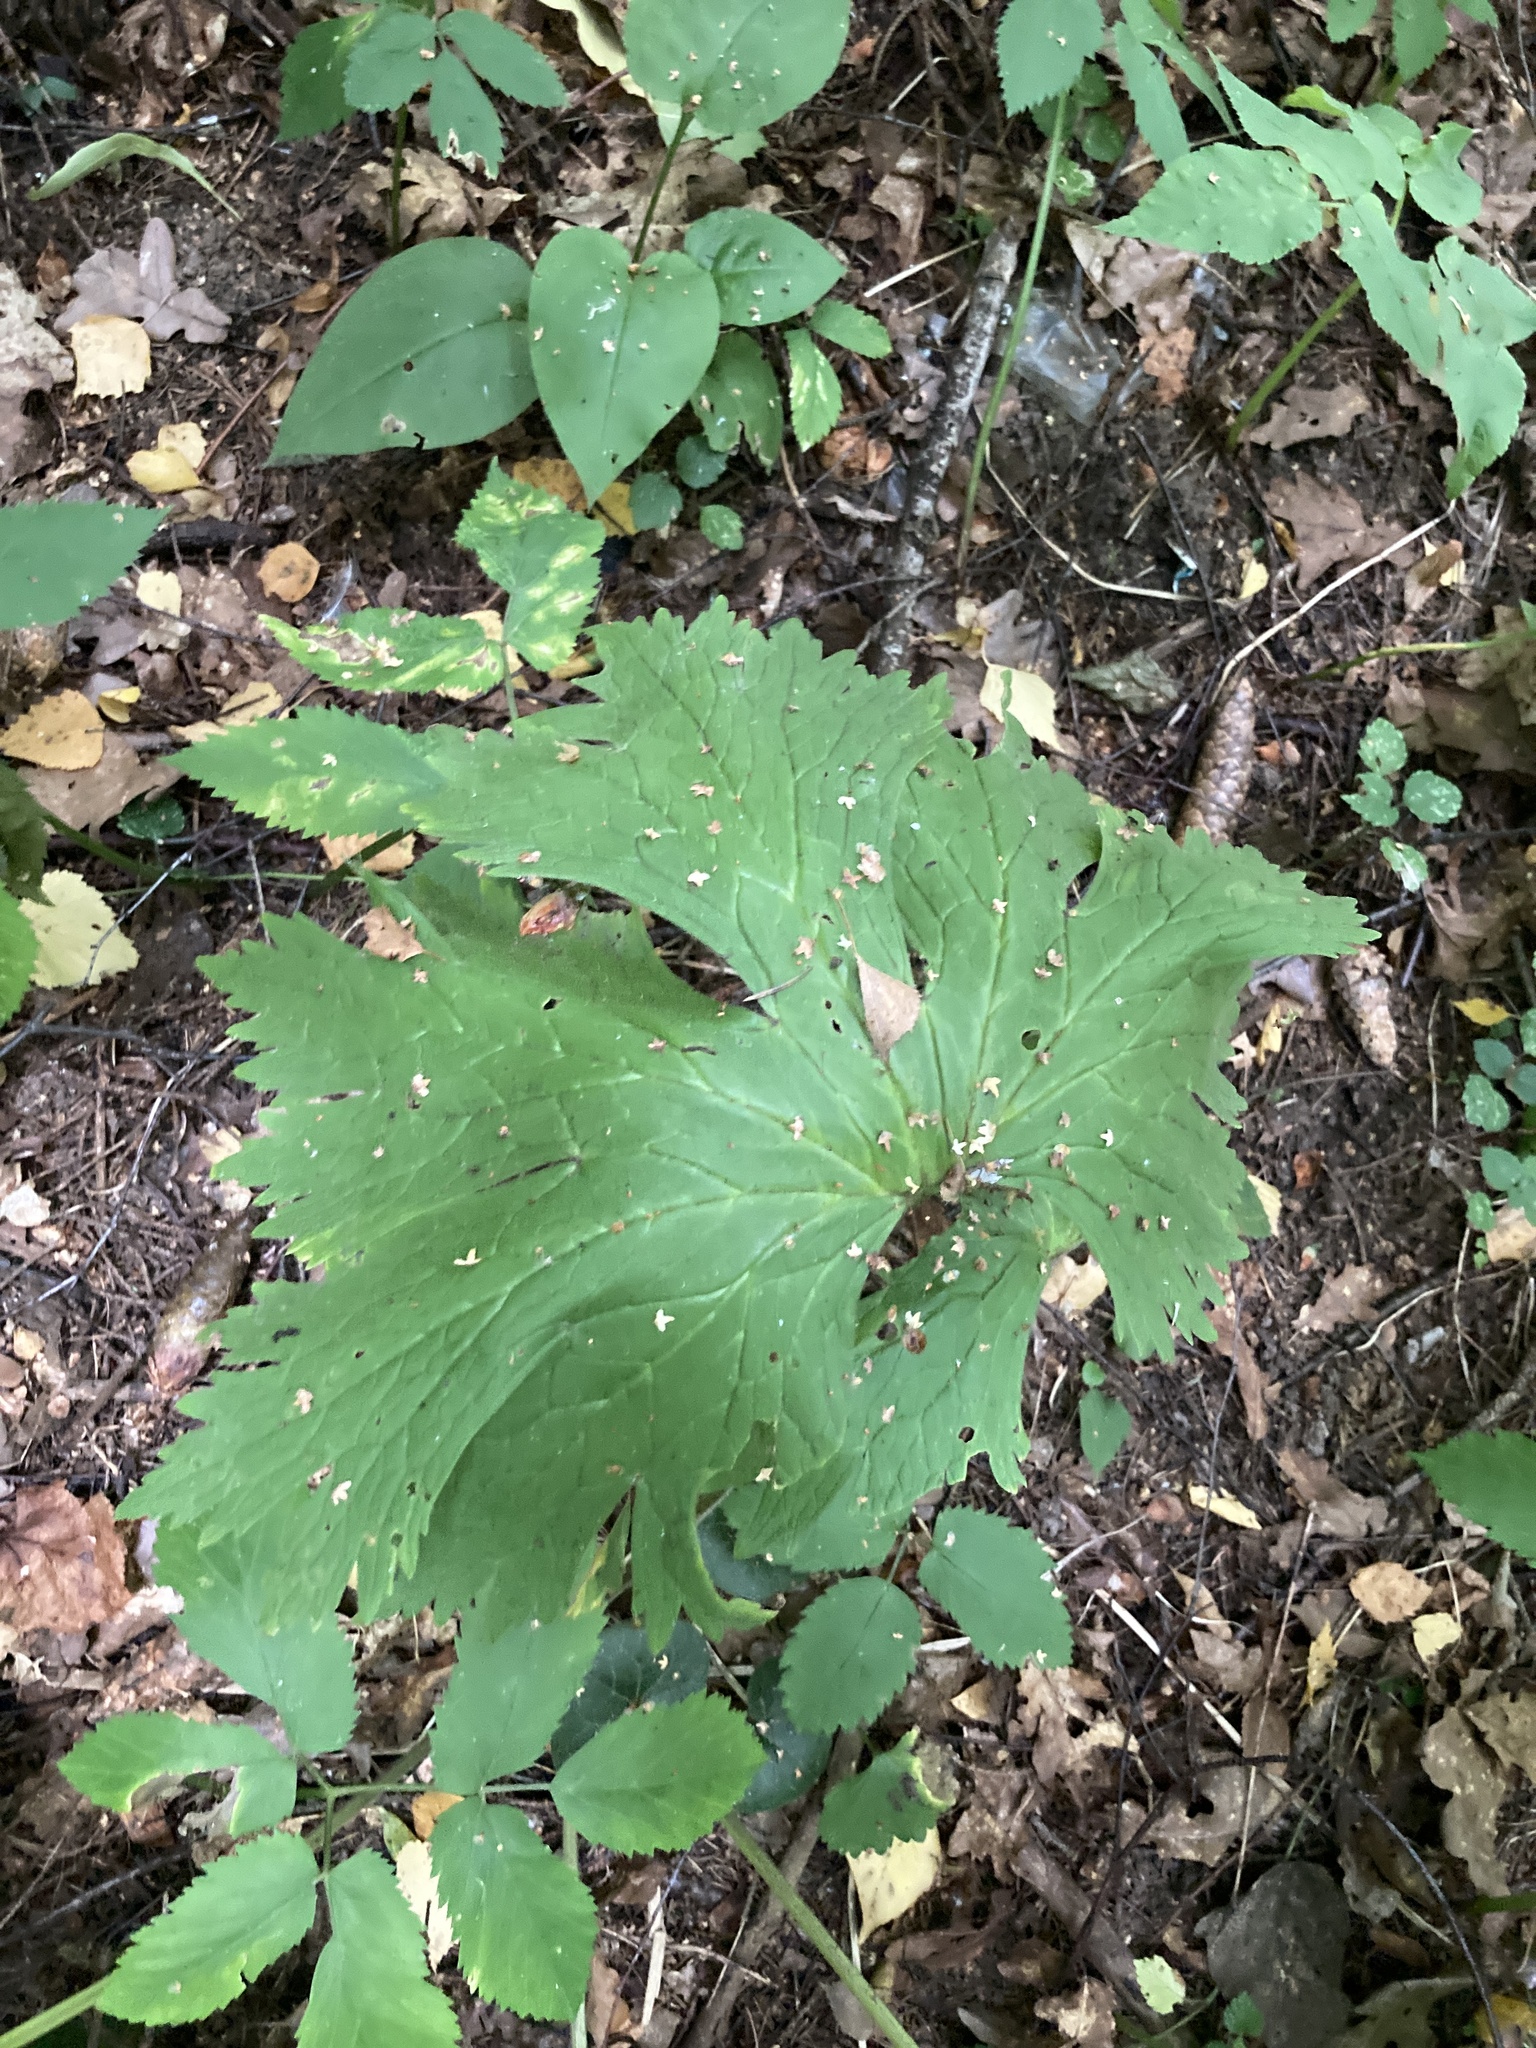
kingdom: Plantae
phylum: Tracheophyta
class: Magnoliopsida
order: Ranunculales
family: Ranunculaceae
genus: Aconitum
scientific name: Aconitum septentrionale
